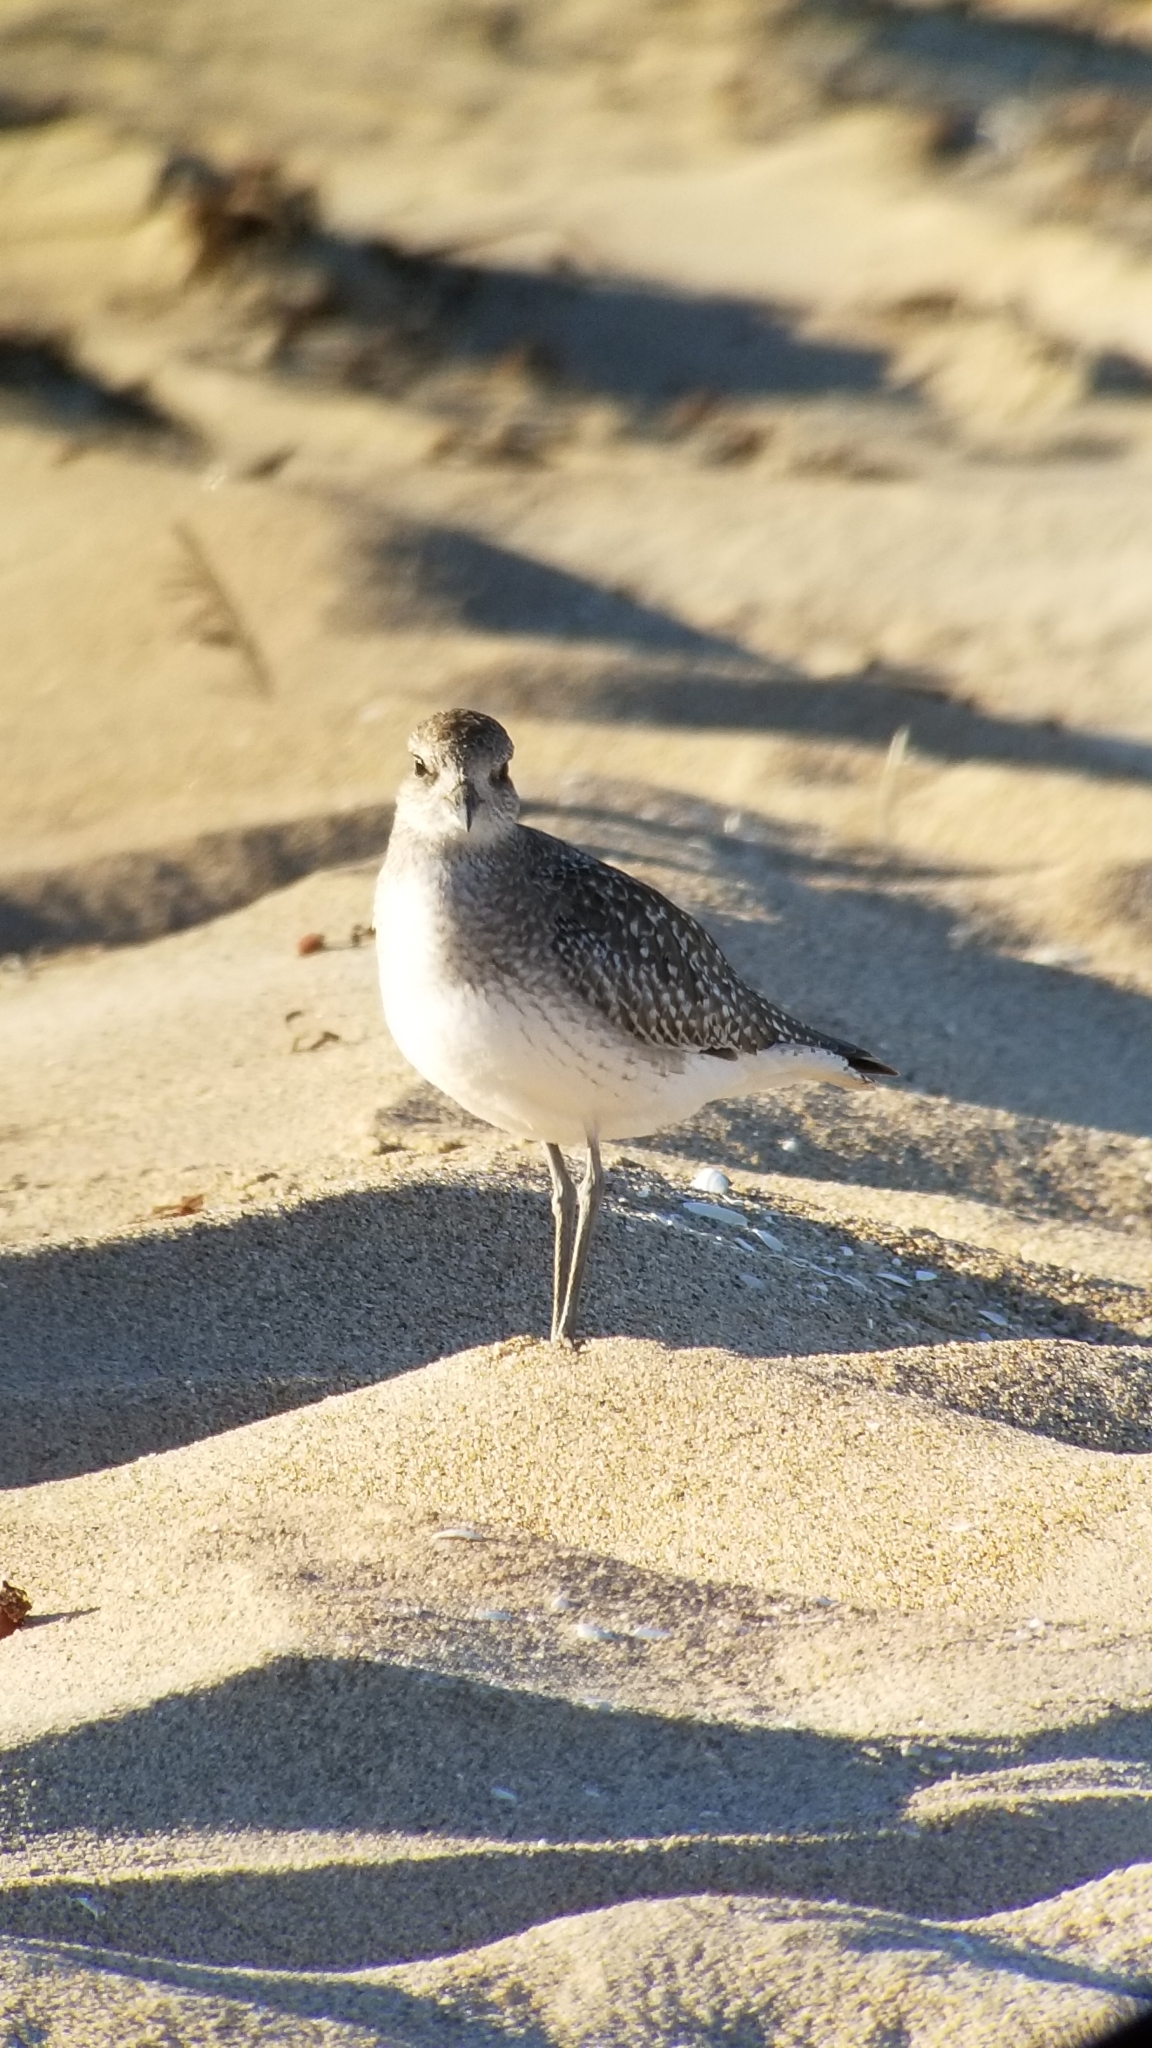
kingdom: Animalia
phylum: Chordata
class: Aves
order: Charadriiformes
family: Charadriidae
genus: Pluvialis
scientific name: Pluvialis squatarola
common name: Grey plover
